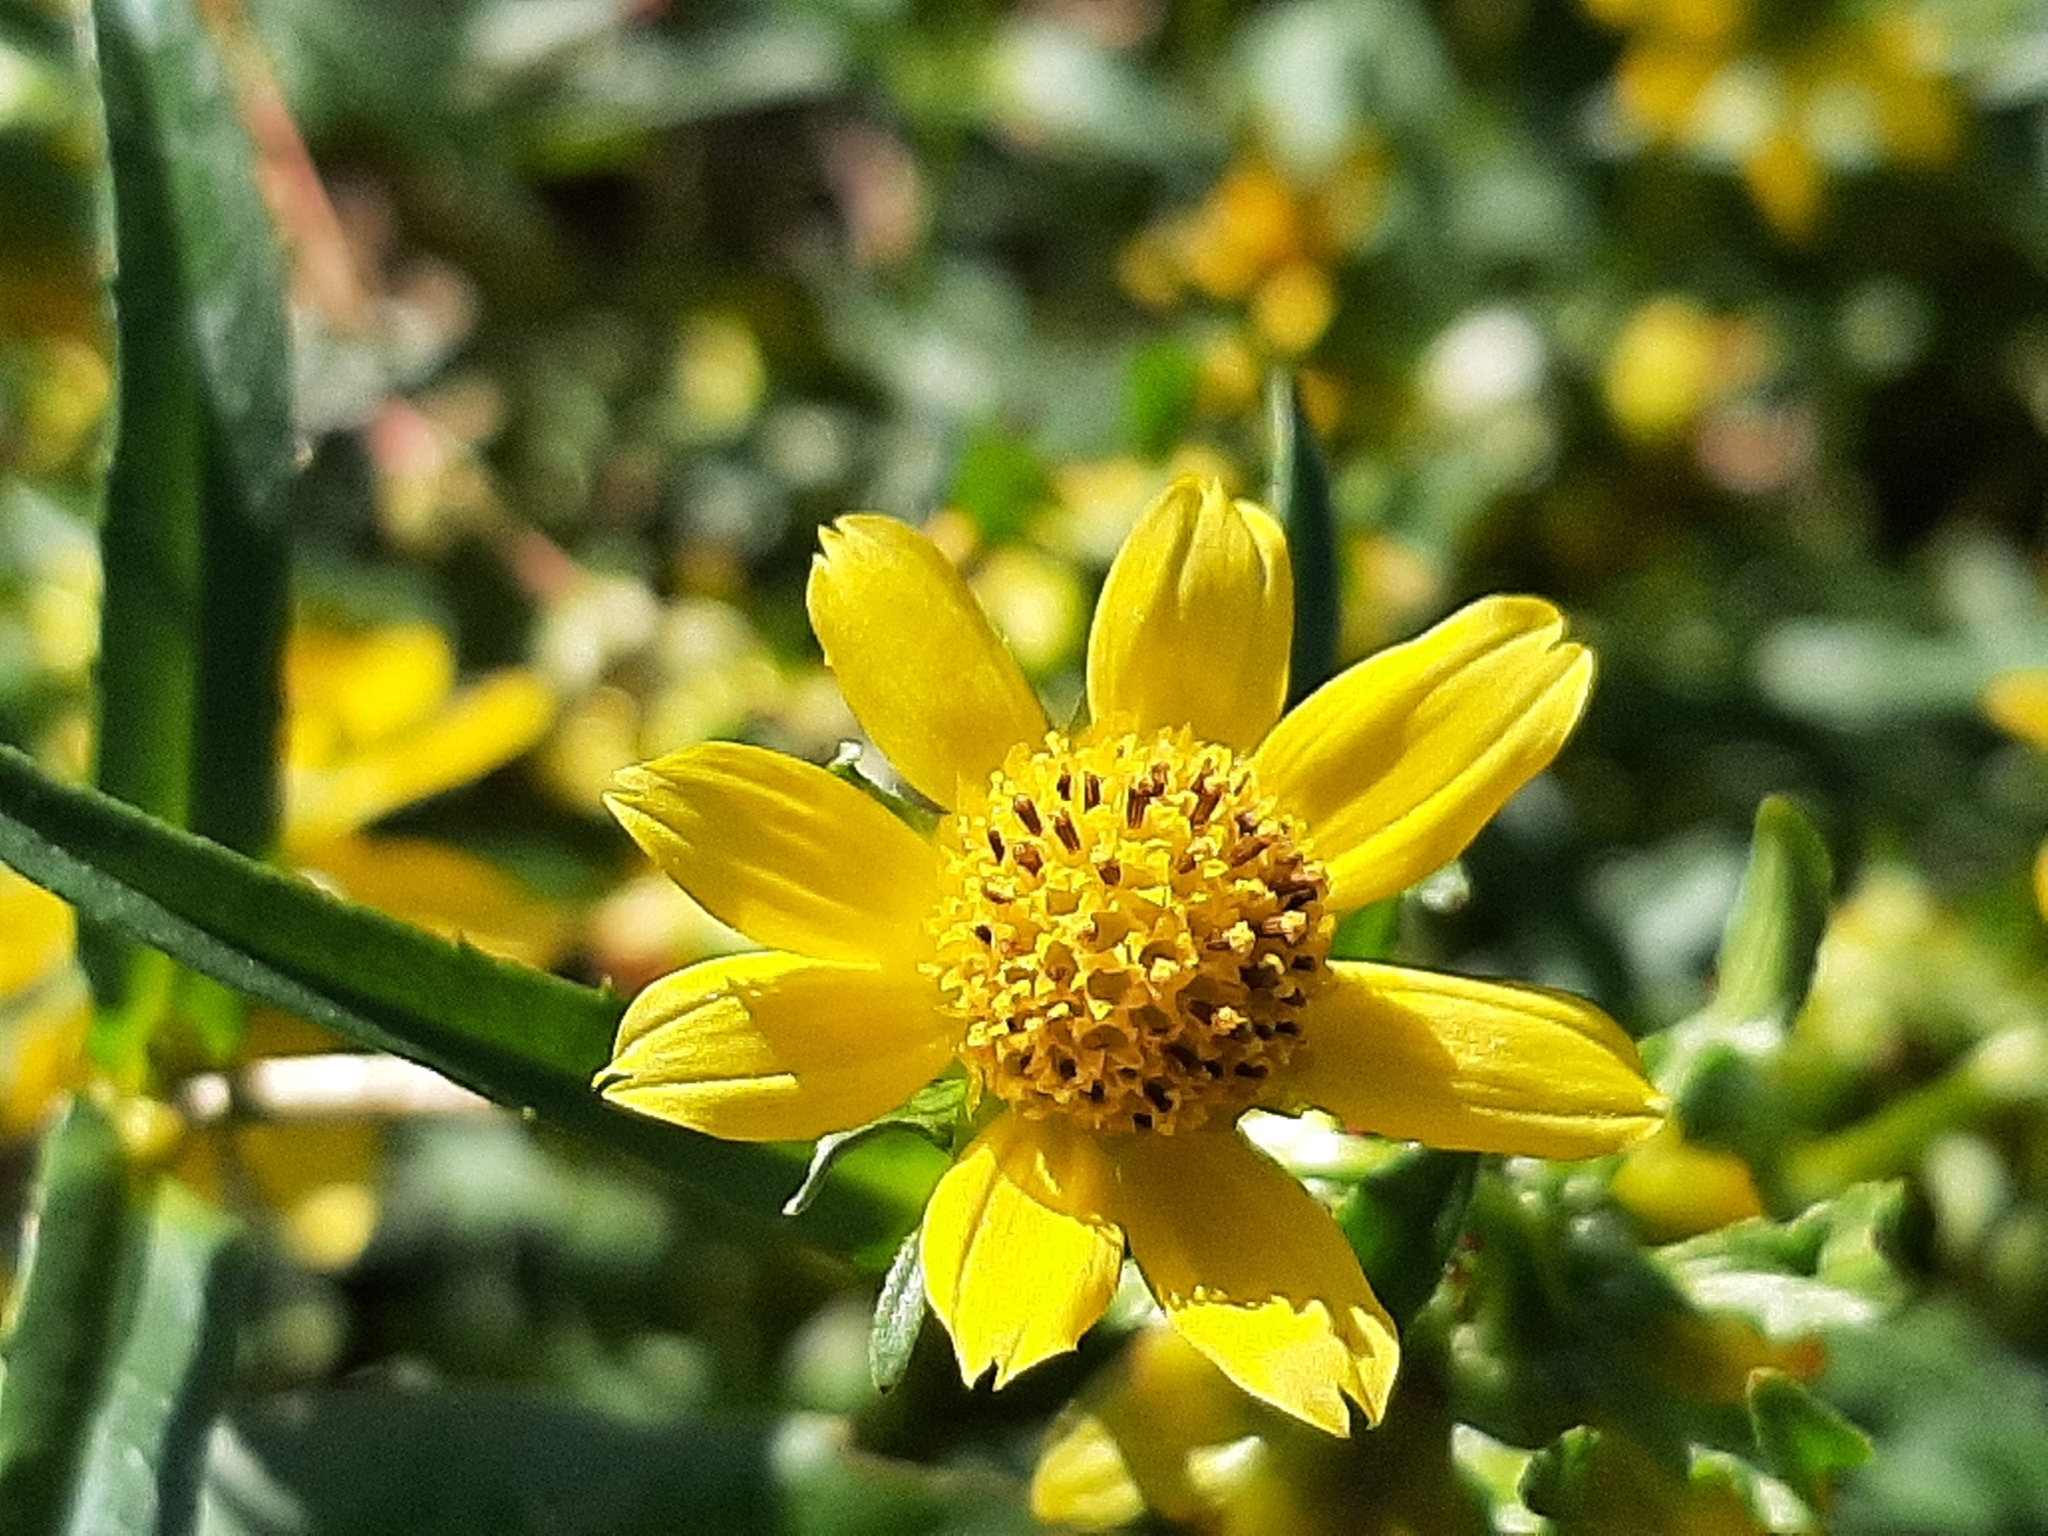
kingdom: Plantae
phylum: Tracheophyta
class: Magnoliopsida
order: Asterales
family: Asteraceae
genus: Bidens
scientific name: Bidens cernua
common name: Nodding bur-marigold
